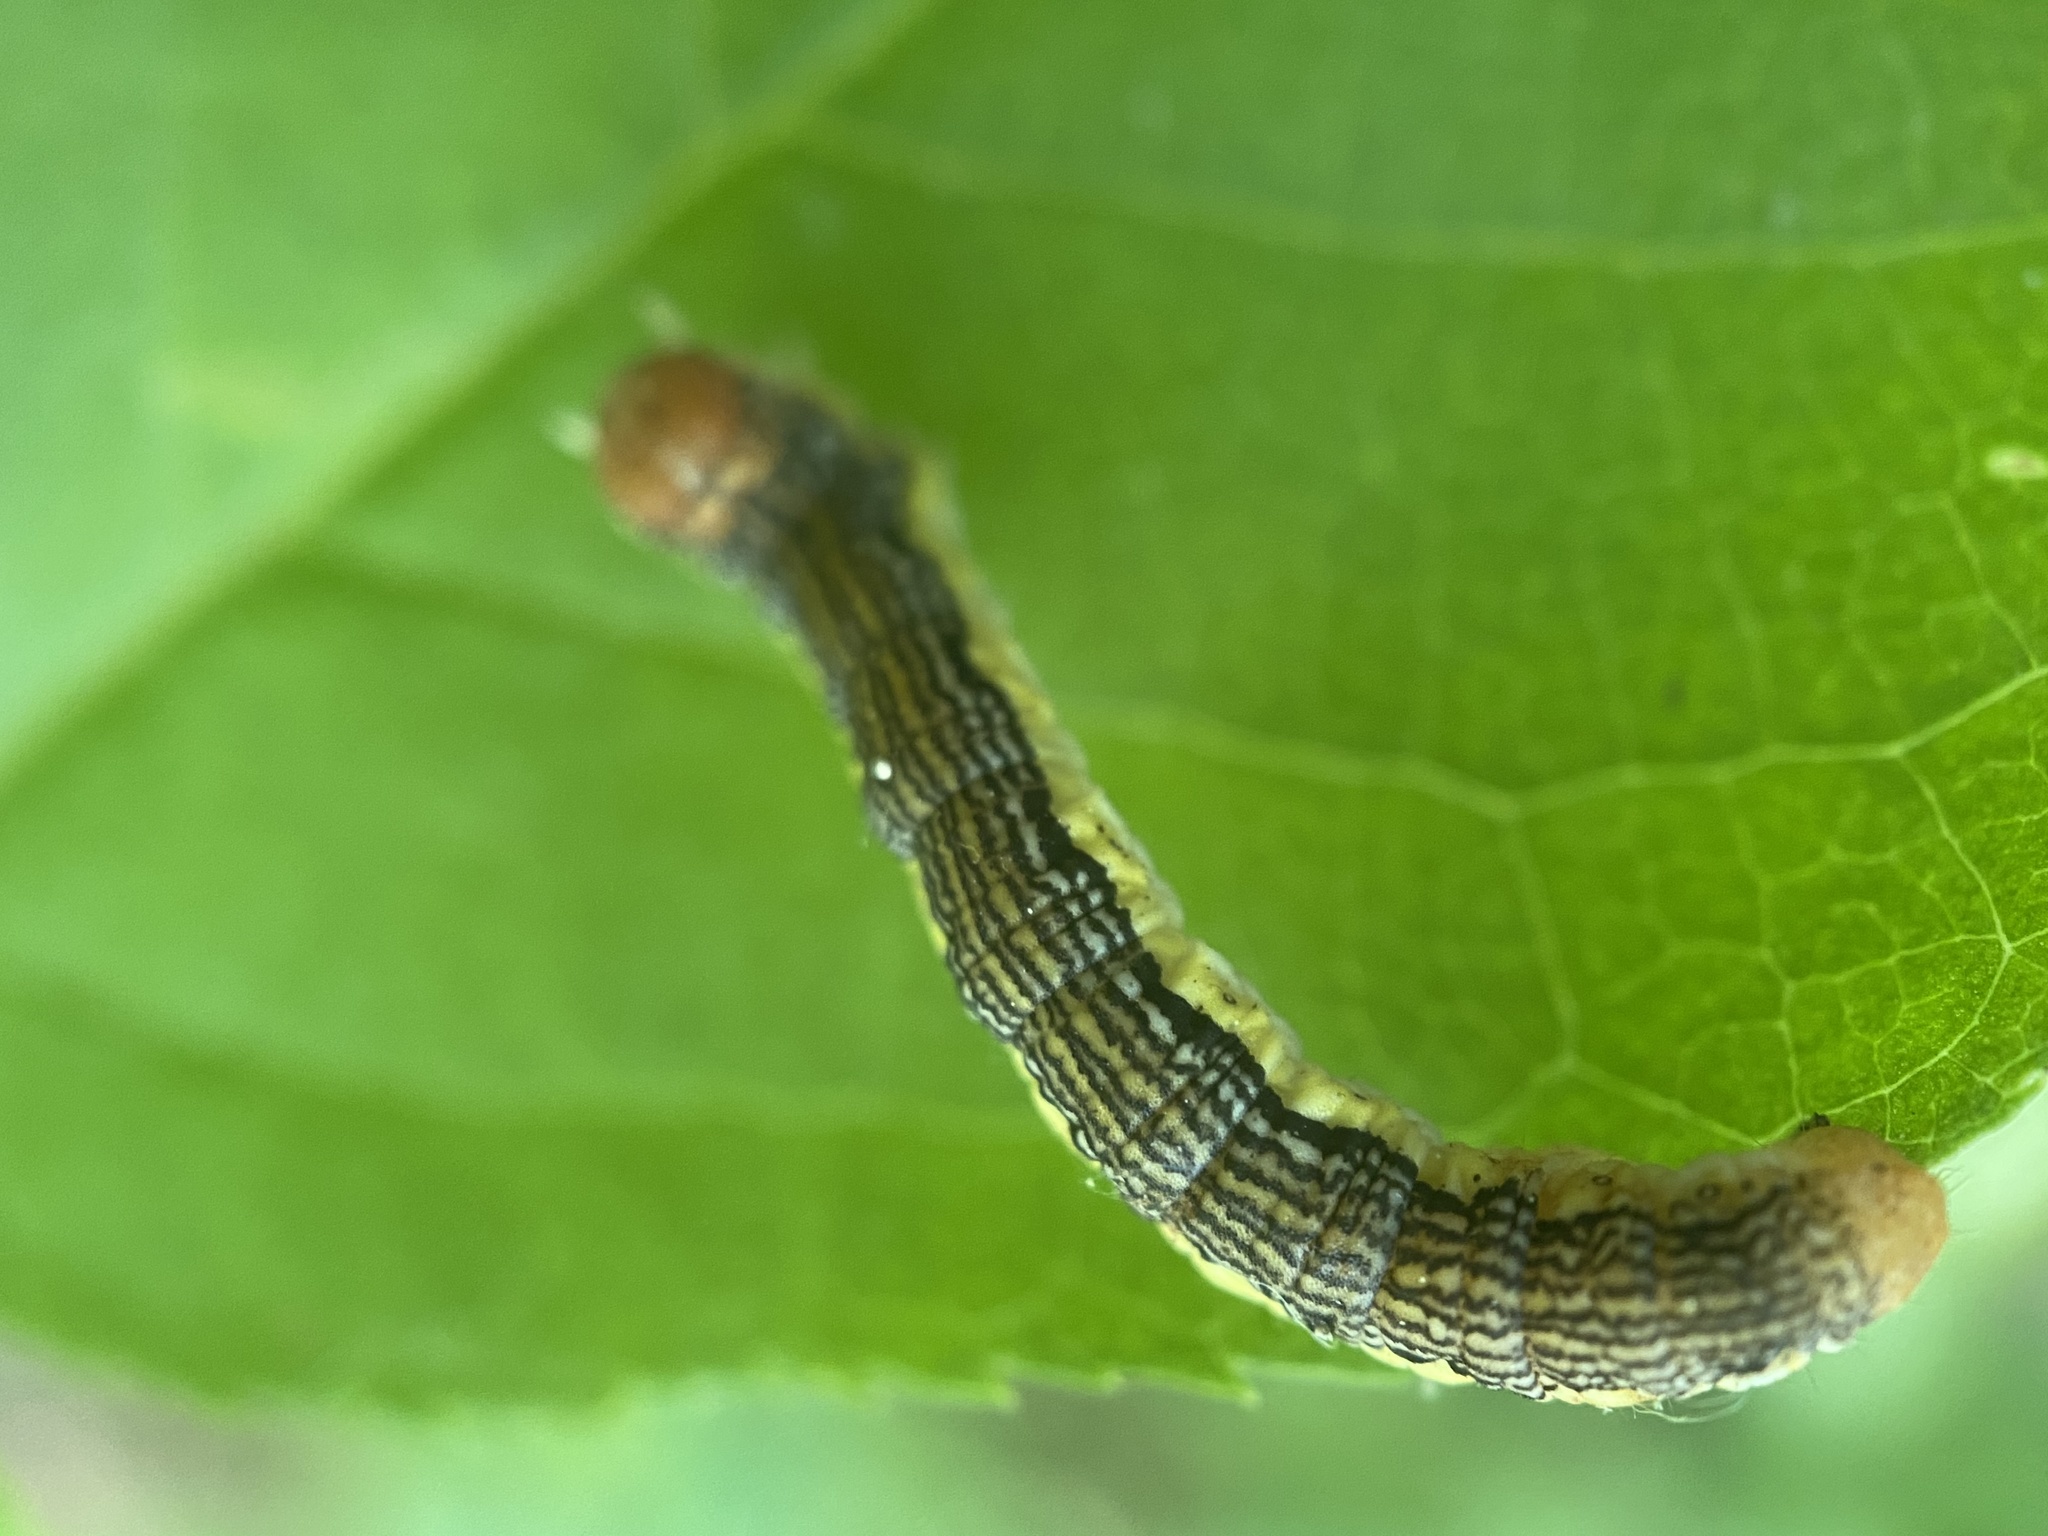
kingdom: Animalia
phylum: Arthropoda
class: Insecta
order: Lepidoptera
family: Geometridae
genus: Erannis
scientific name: Erannis tiliaria
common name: Linden looper
